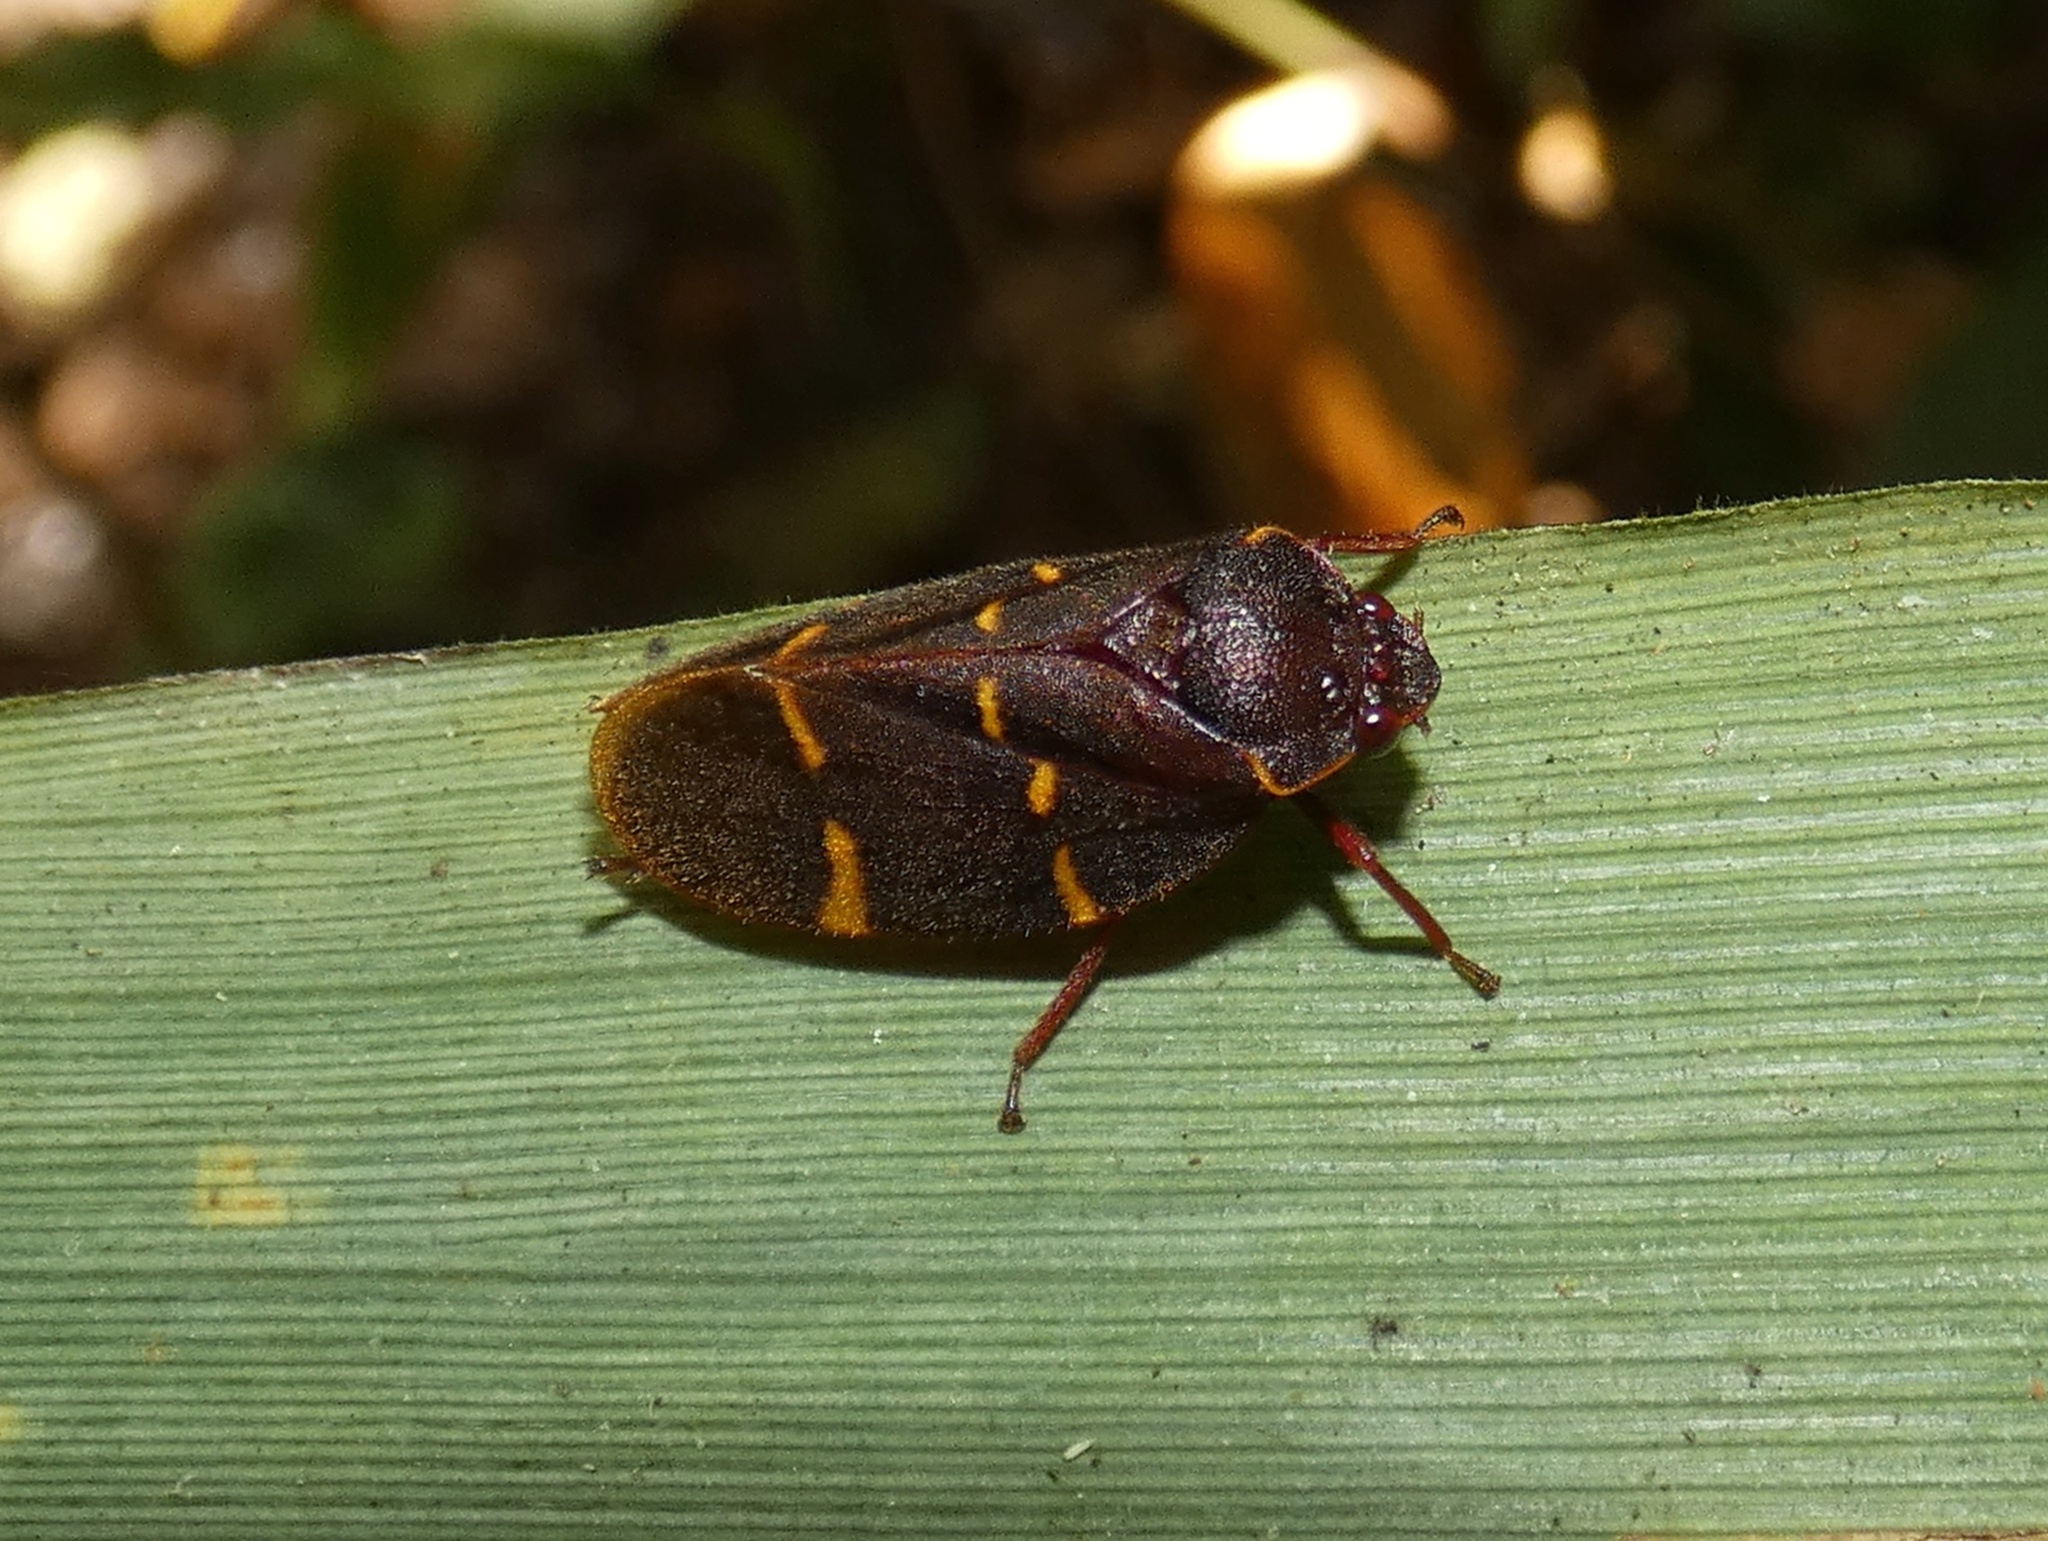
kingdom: Animalia
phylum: Arthropoda
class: Insecta
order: Hemiptera
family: Cercopidae
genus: Vorago
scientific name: Vorago boxi
